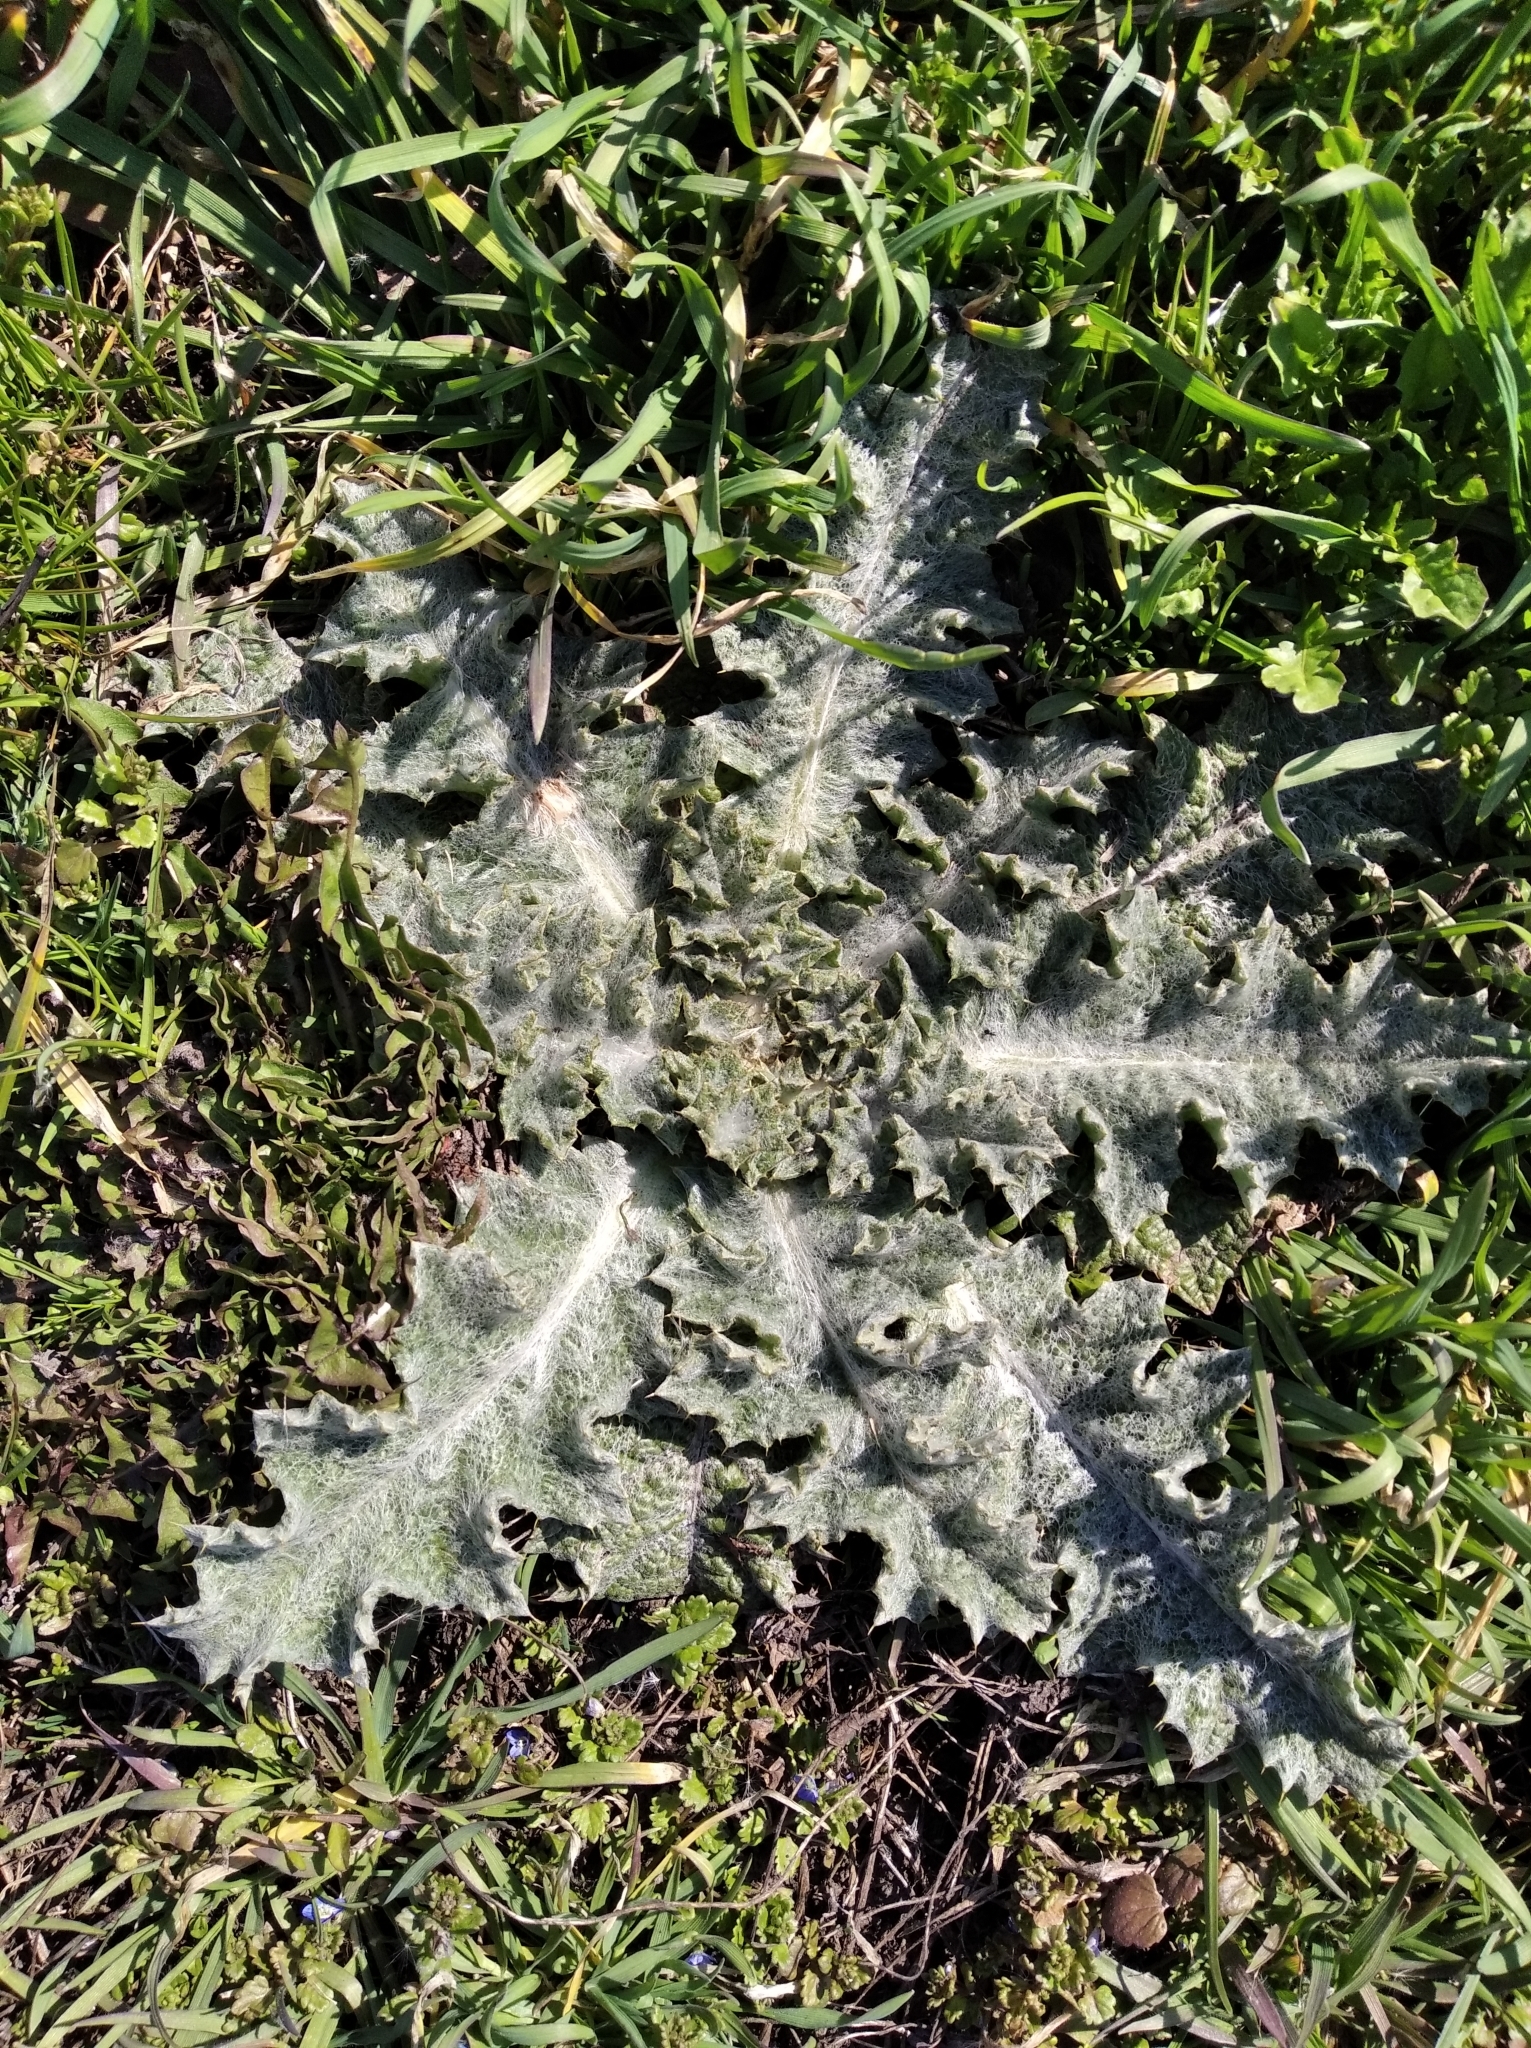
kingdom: Plantae
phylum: Tracheophyta
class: Magnoliopsida
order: Asterales
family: Asteraceae
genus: Onopordum
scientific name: Onopordum acanthium
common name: Scotch thistle
